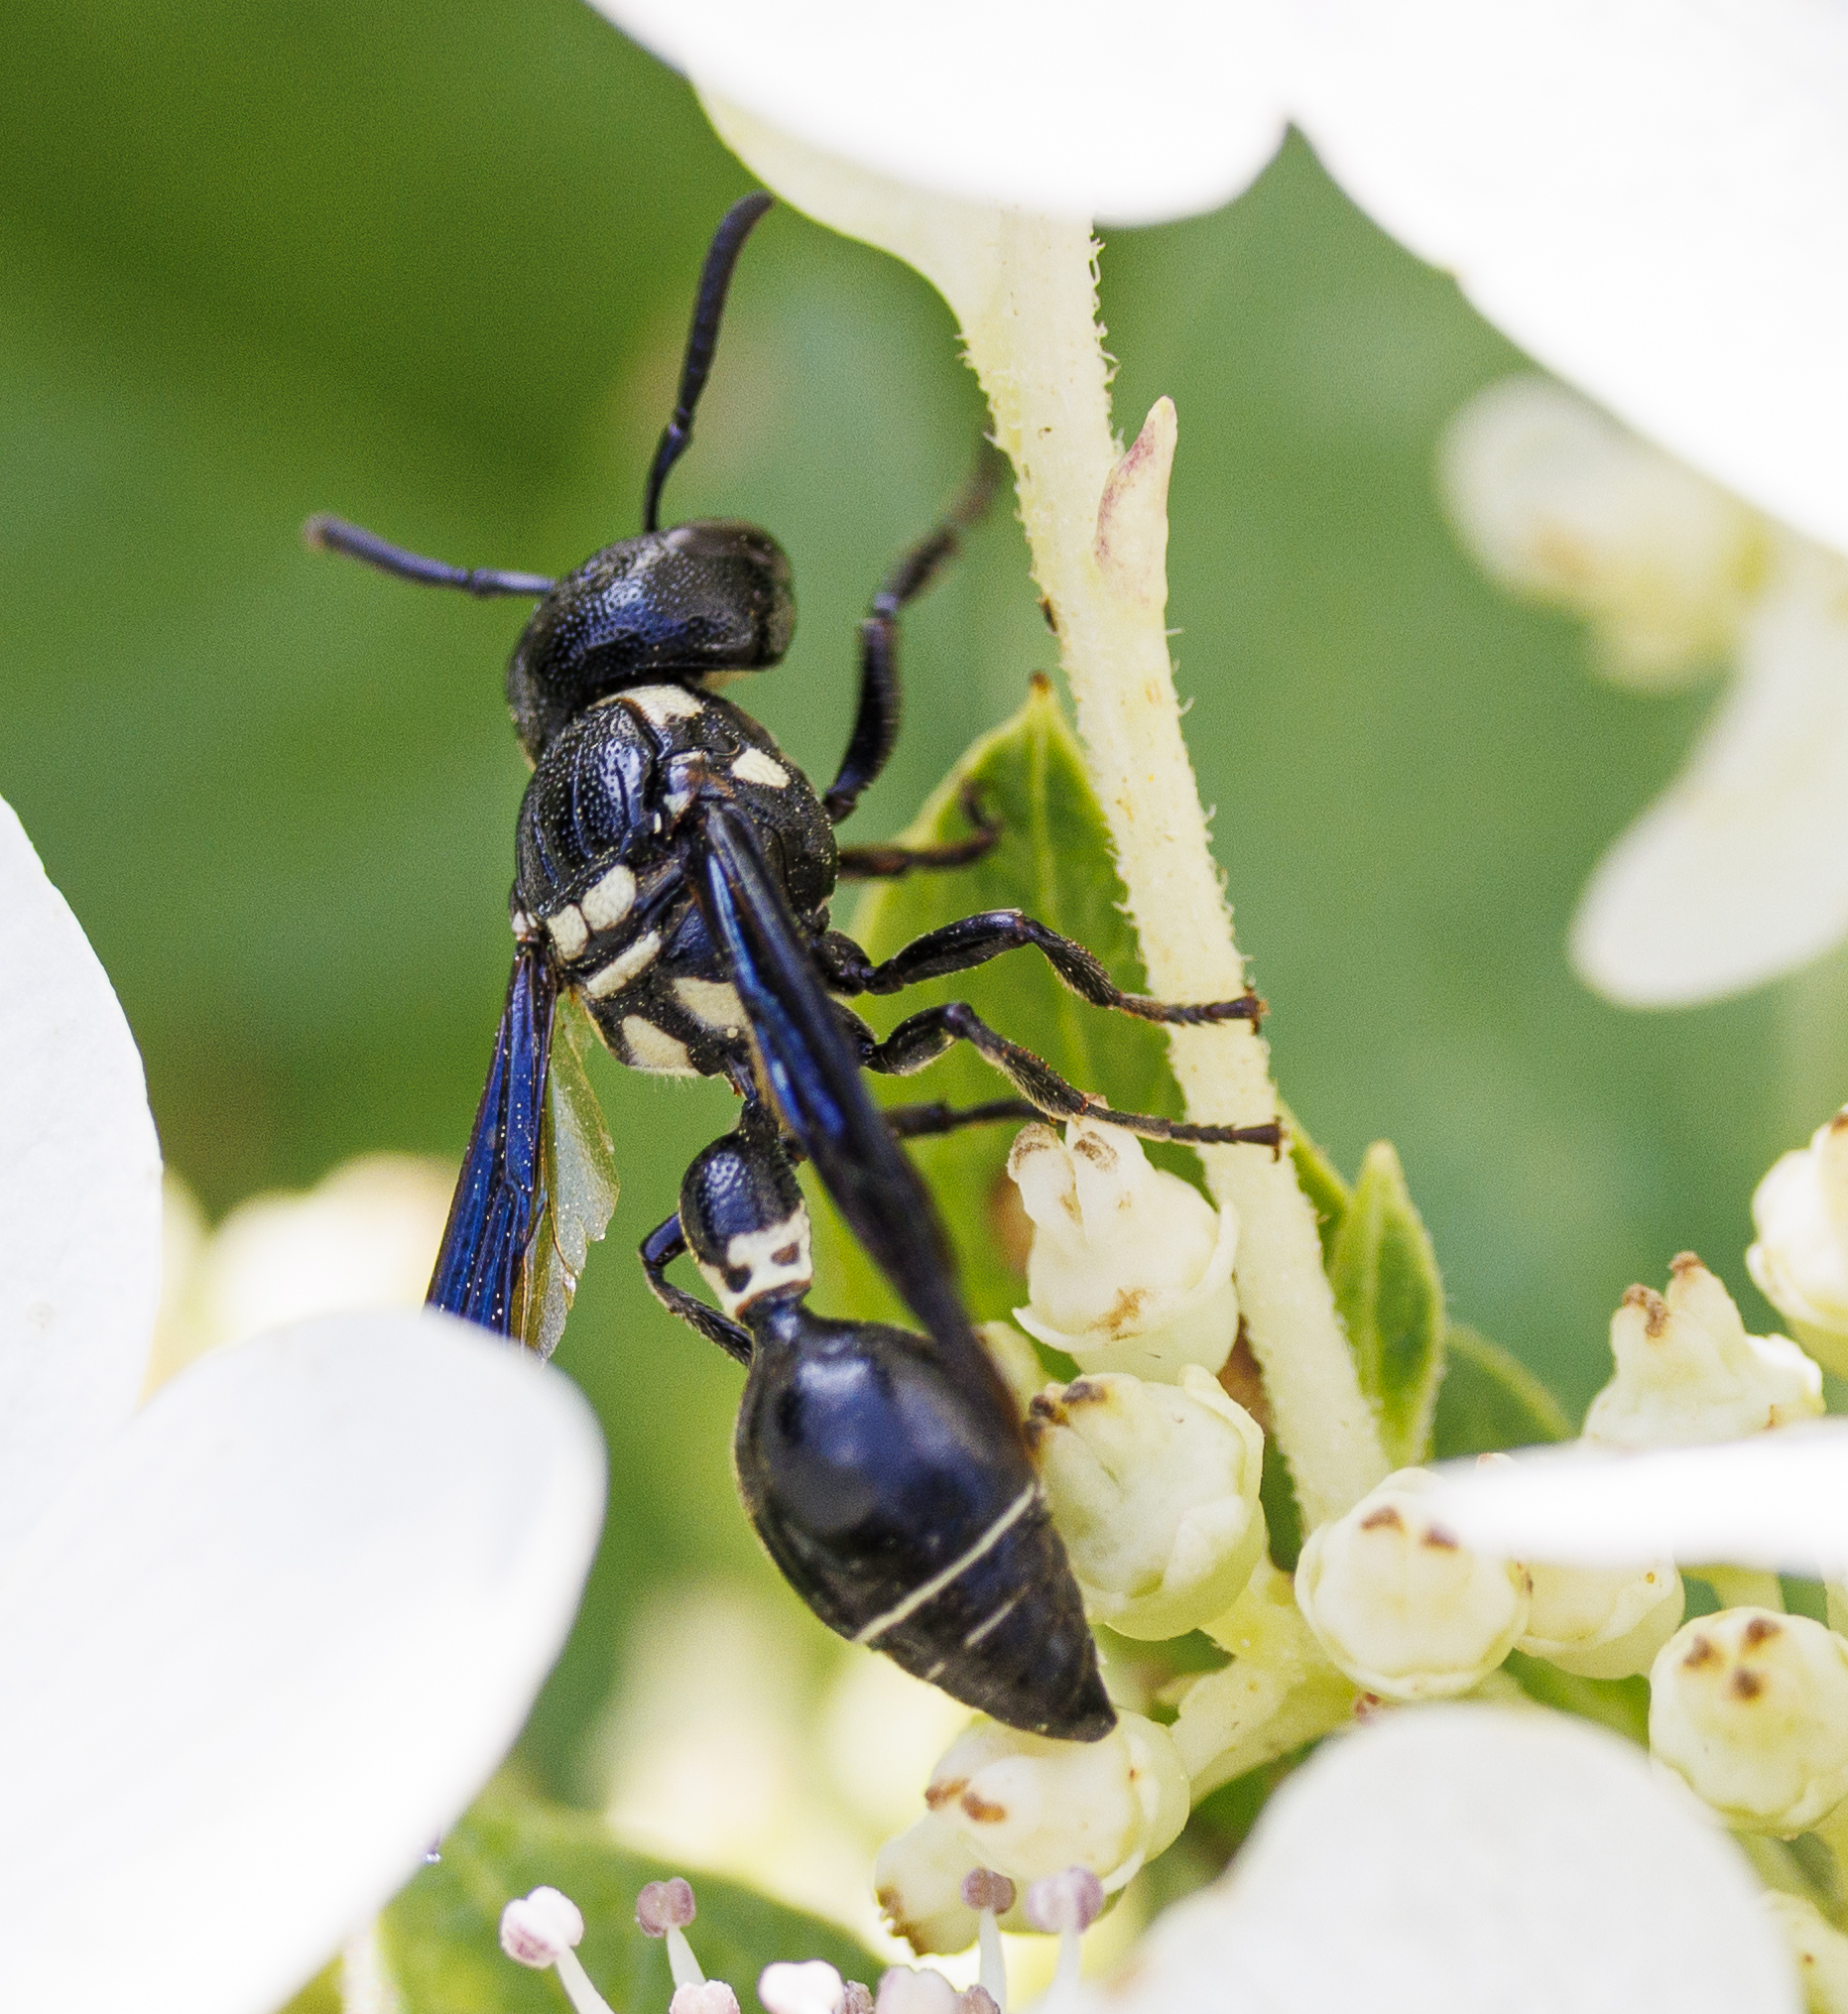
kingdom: Animalia
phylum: Arthropoda
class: Insecta
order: Hymenoptera
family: Eumenidae
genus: Zethus
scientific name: Zethus spinipes
